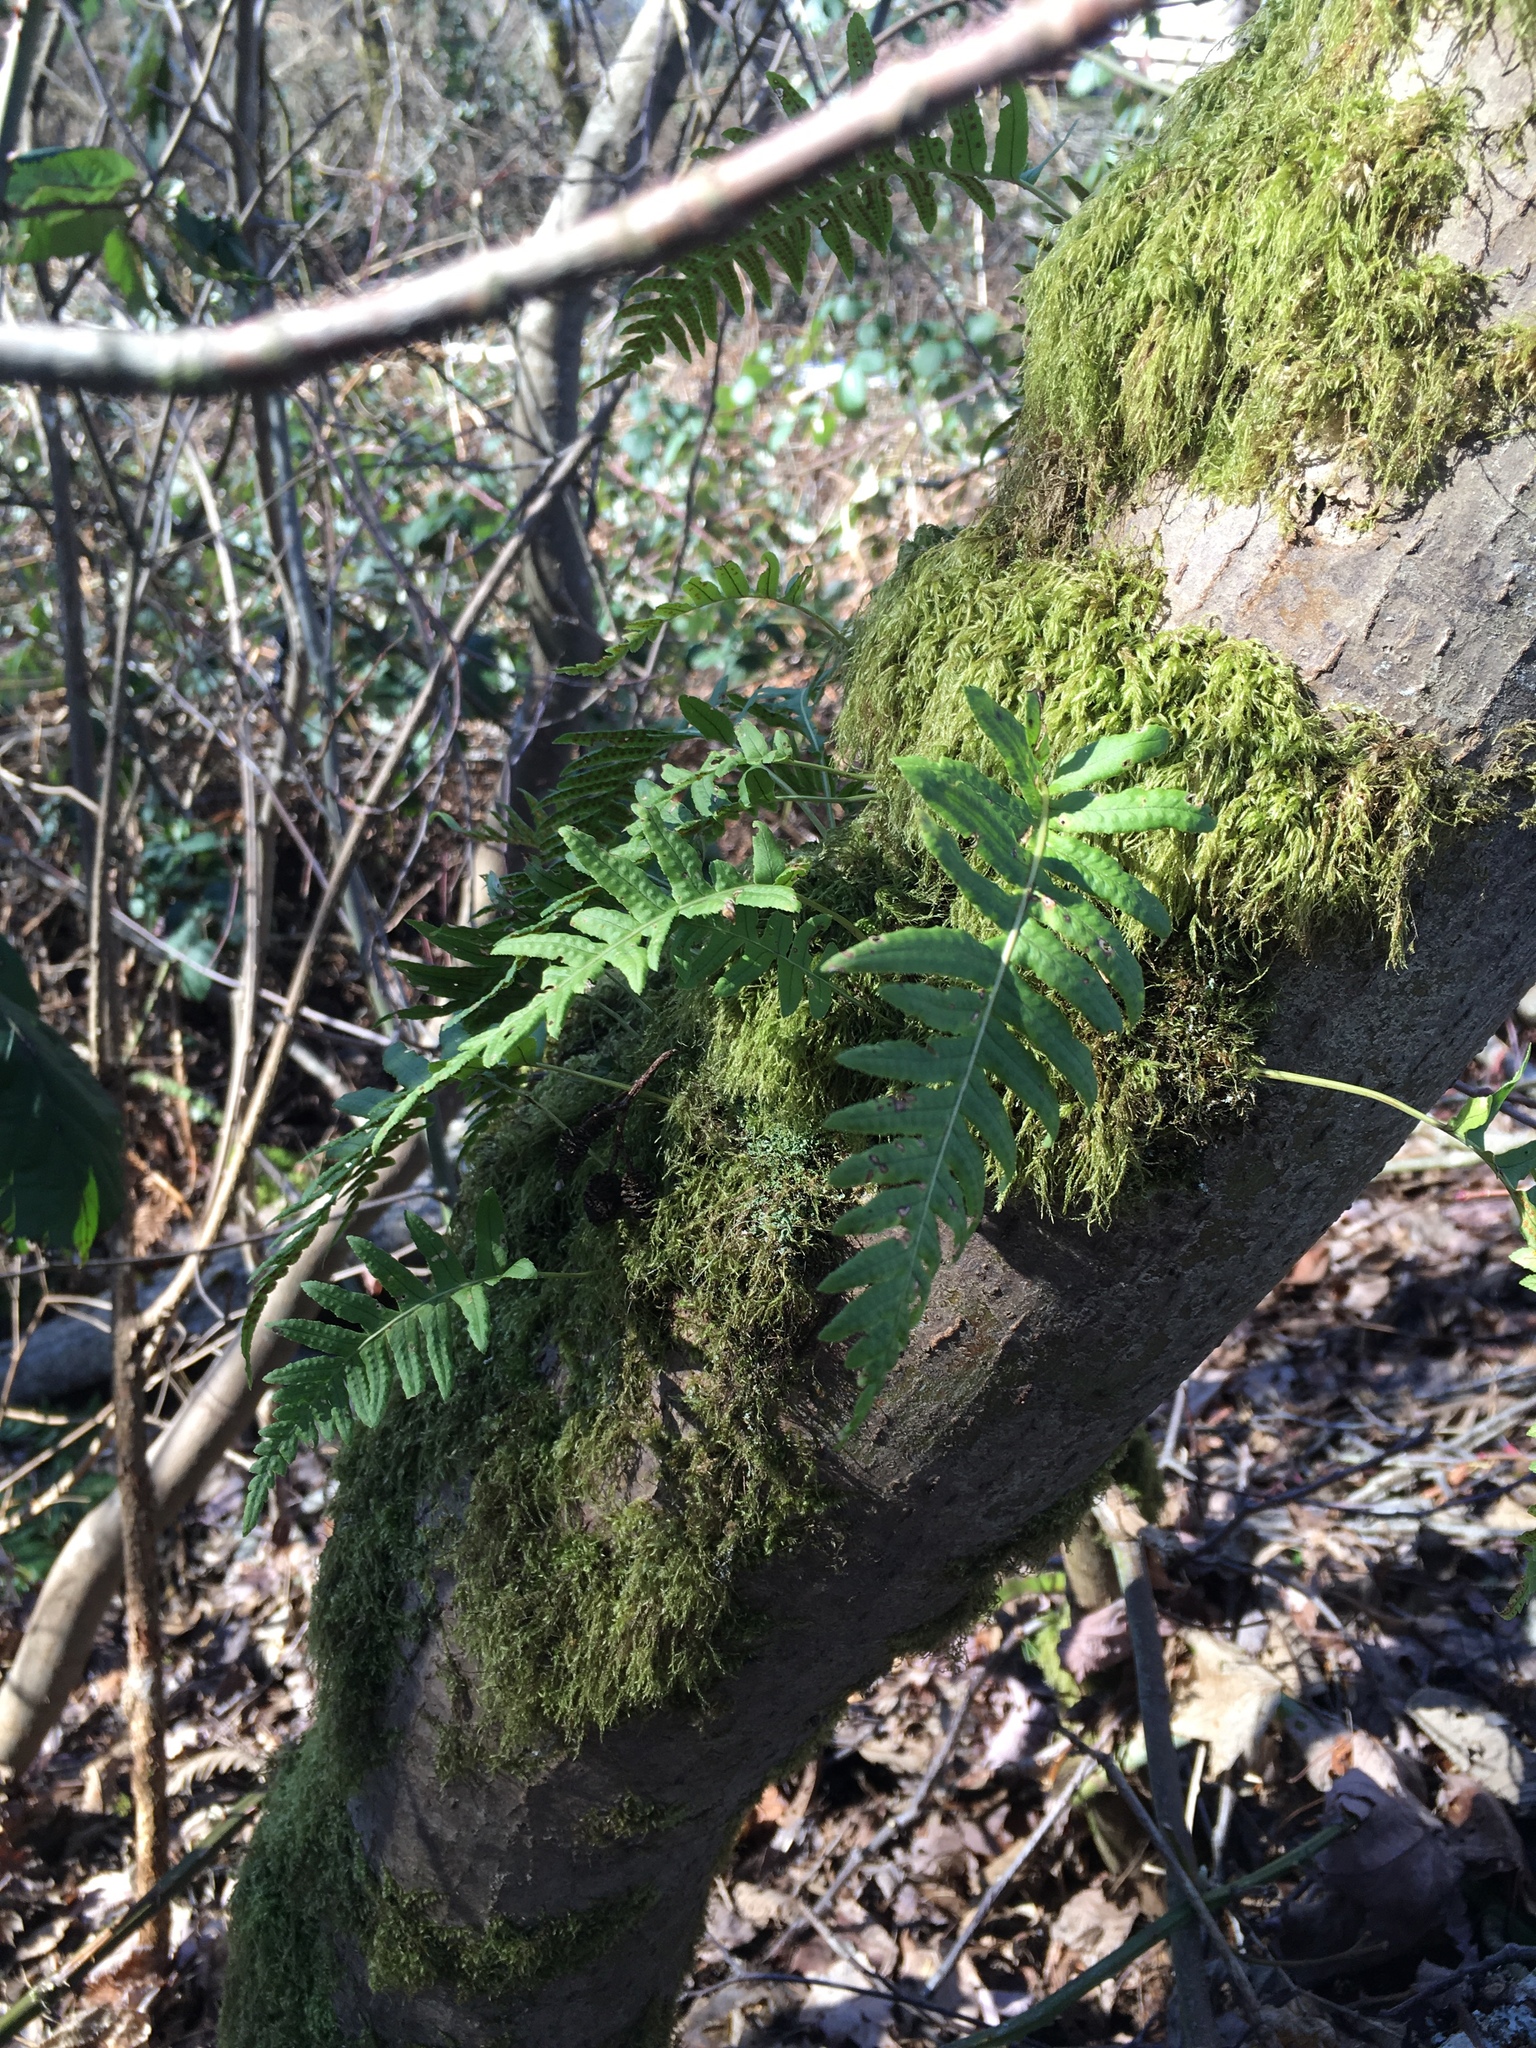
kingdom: Plantae
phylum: Tracheophyta
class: Polypodiopsida
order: Polypodiales
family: Polypodiaceae
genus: Polypodium
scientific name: Polypodium glycyrrhiza
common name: Licorice fern
